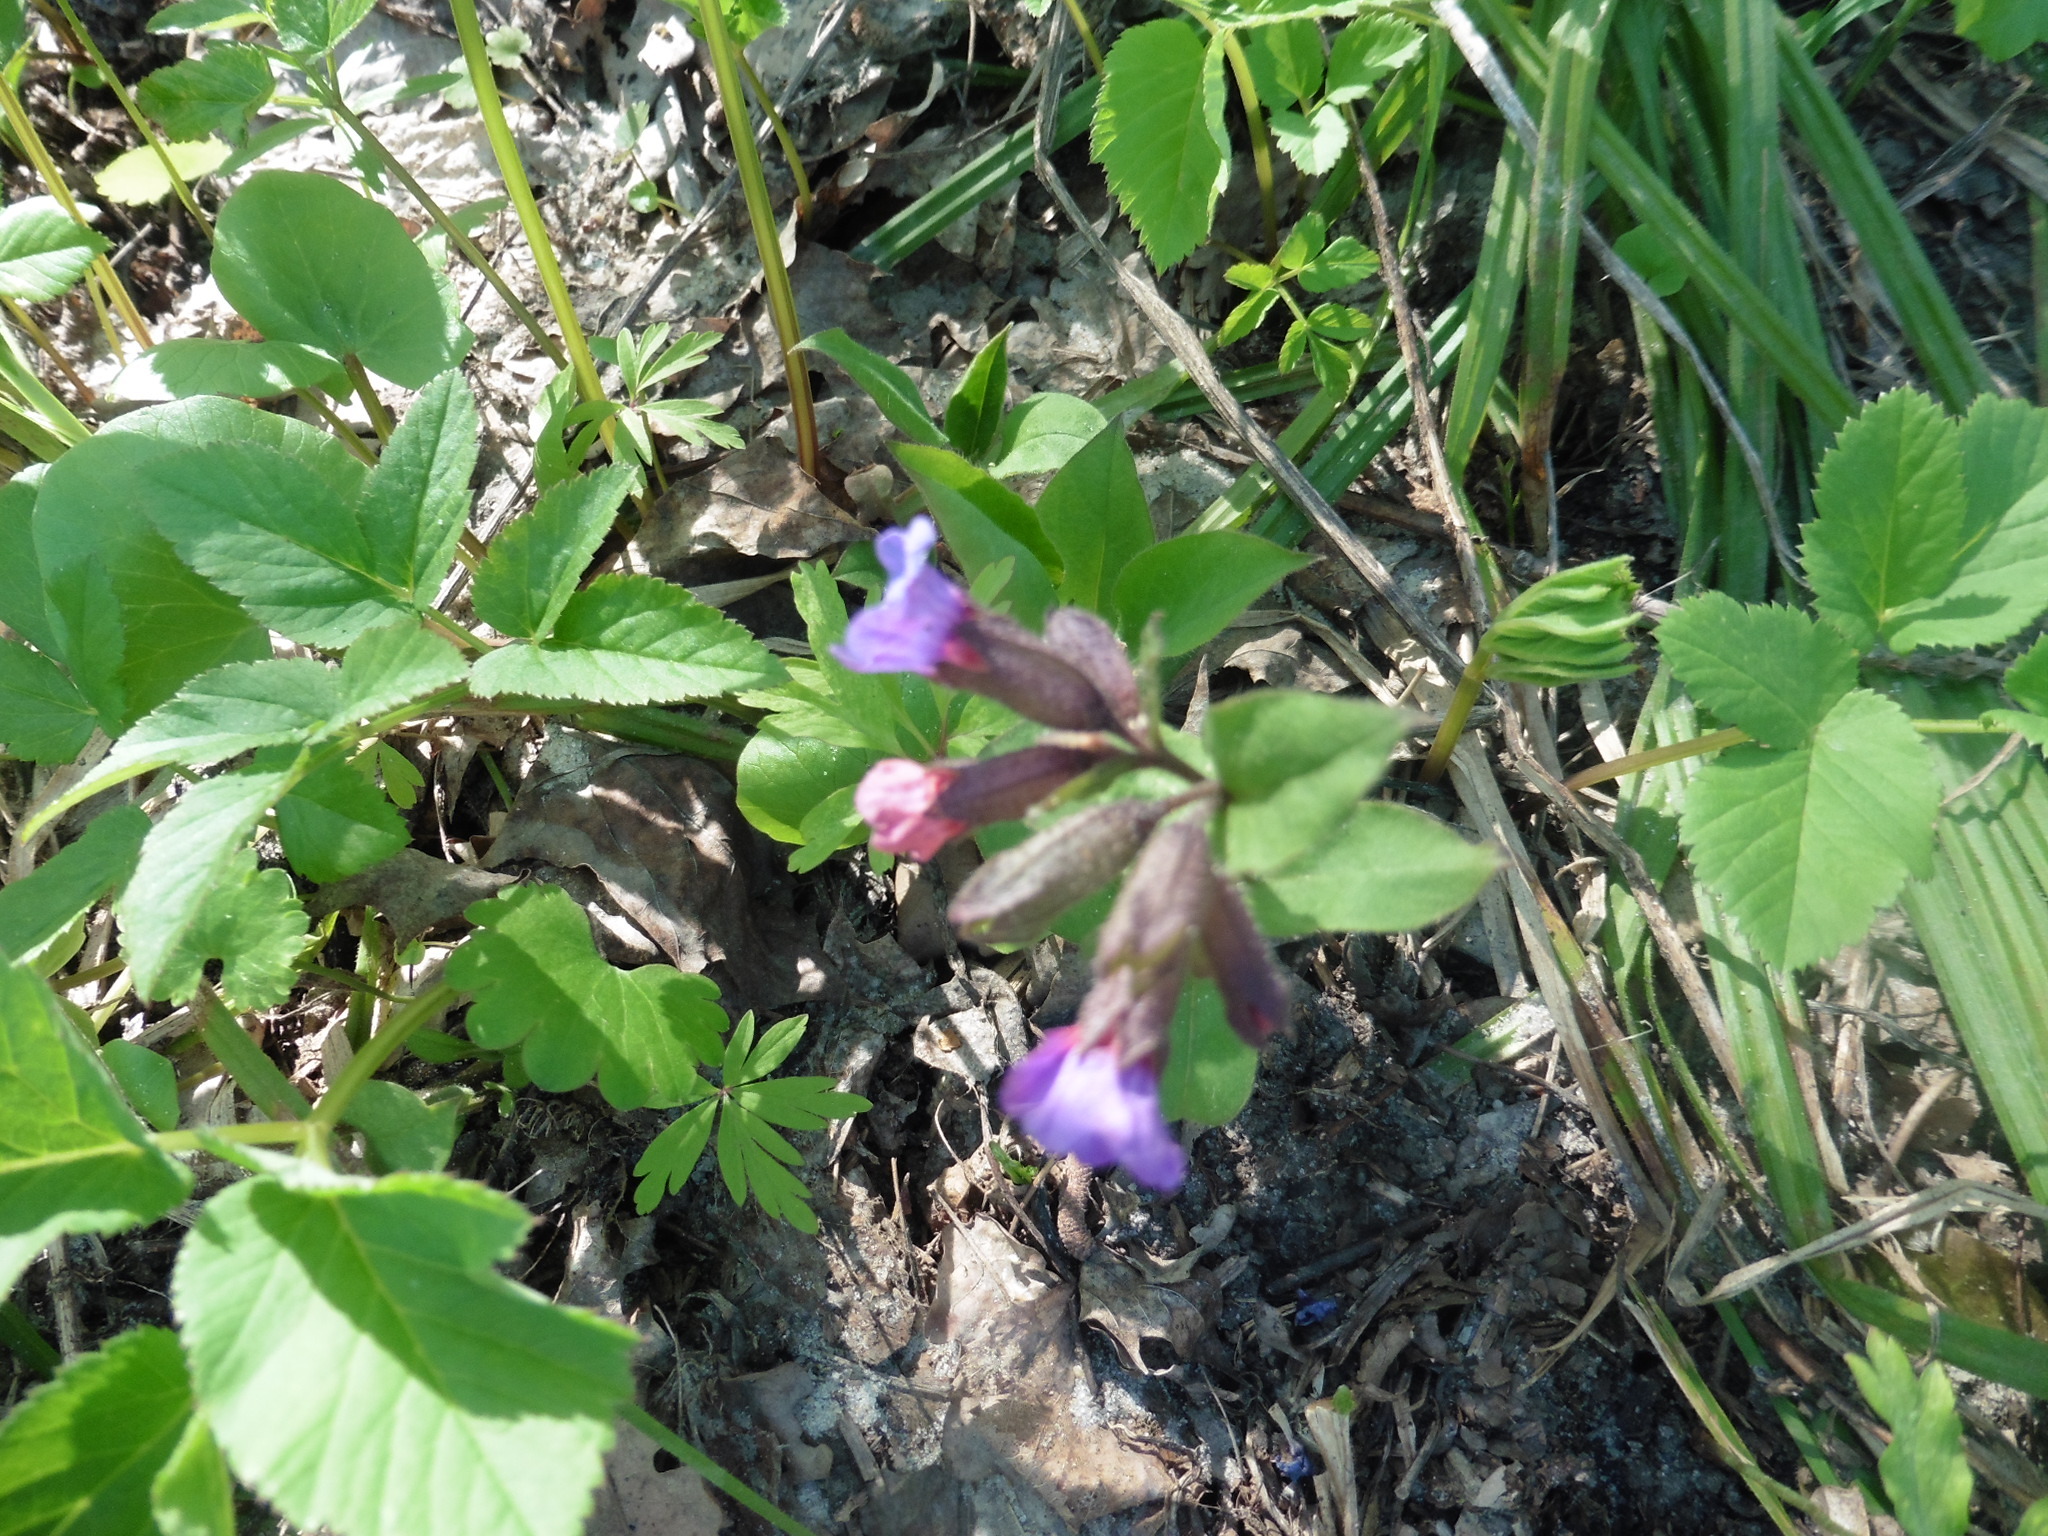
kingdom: Plantae
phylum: Tracheophyta
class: Magnoliopsida
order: Boraginales
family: Boraginaceae
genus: Pulmonaria
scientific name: Pulmonaria obscura
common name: Suffolk lungwort
